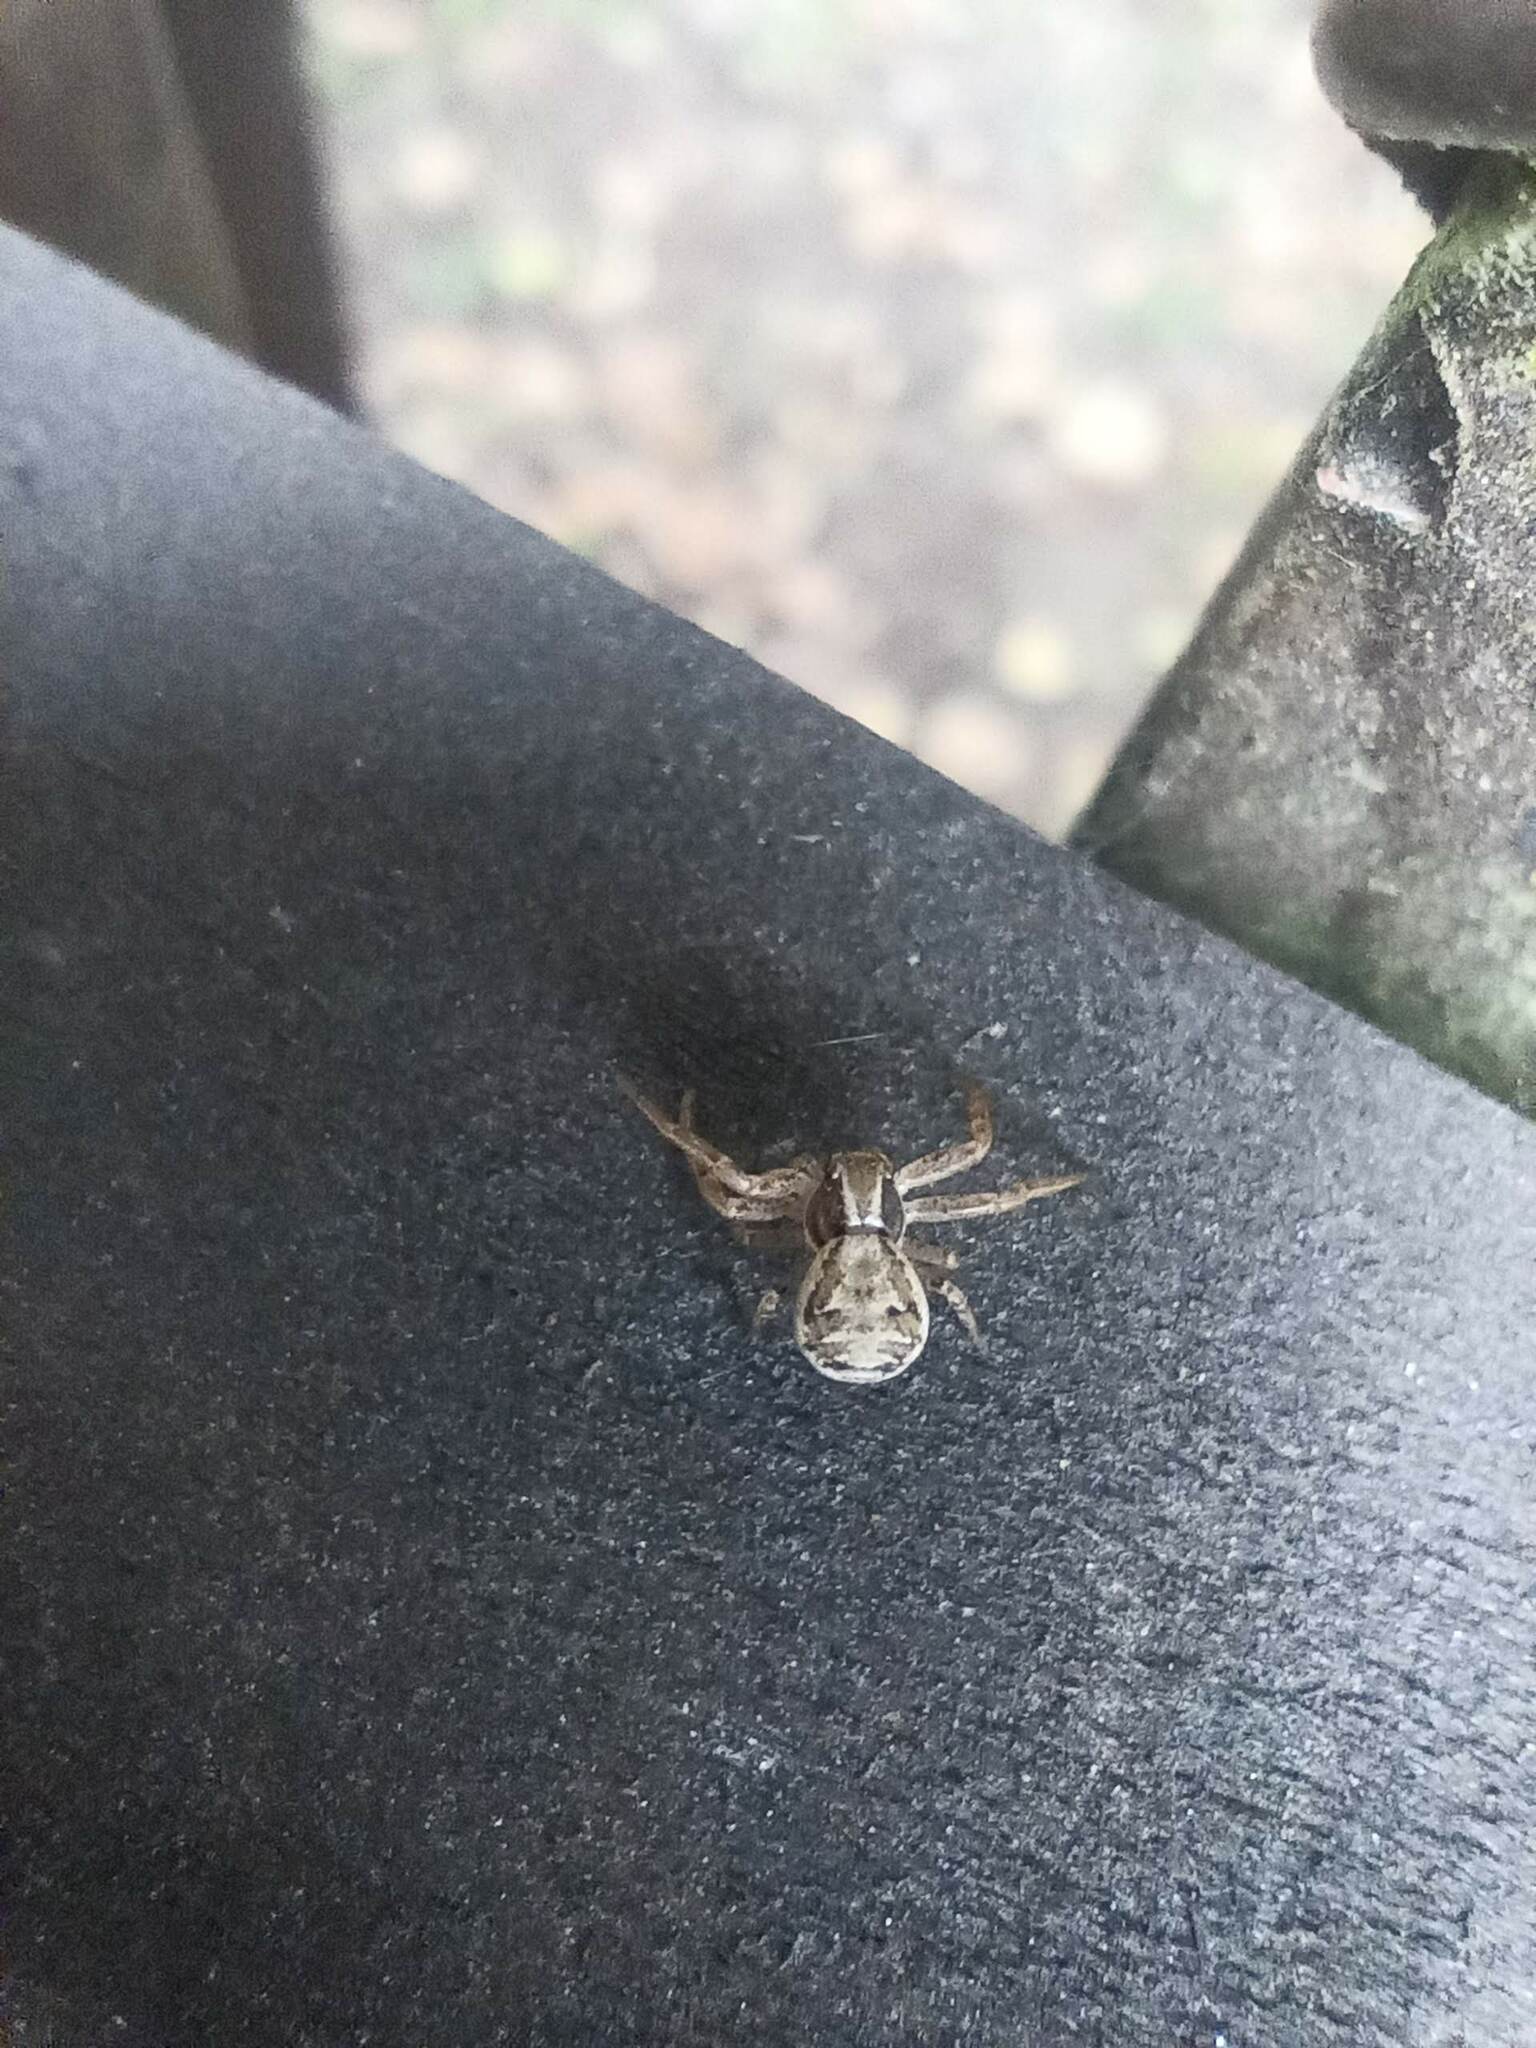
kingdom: Animalia
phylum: Arthropoda
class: Arachnida
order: Araneae
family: Thomisidae
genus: Xysticus
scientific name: Xysticus
